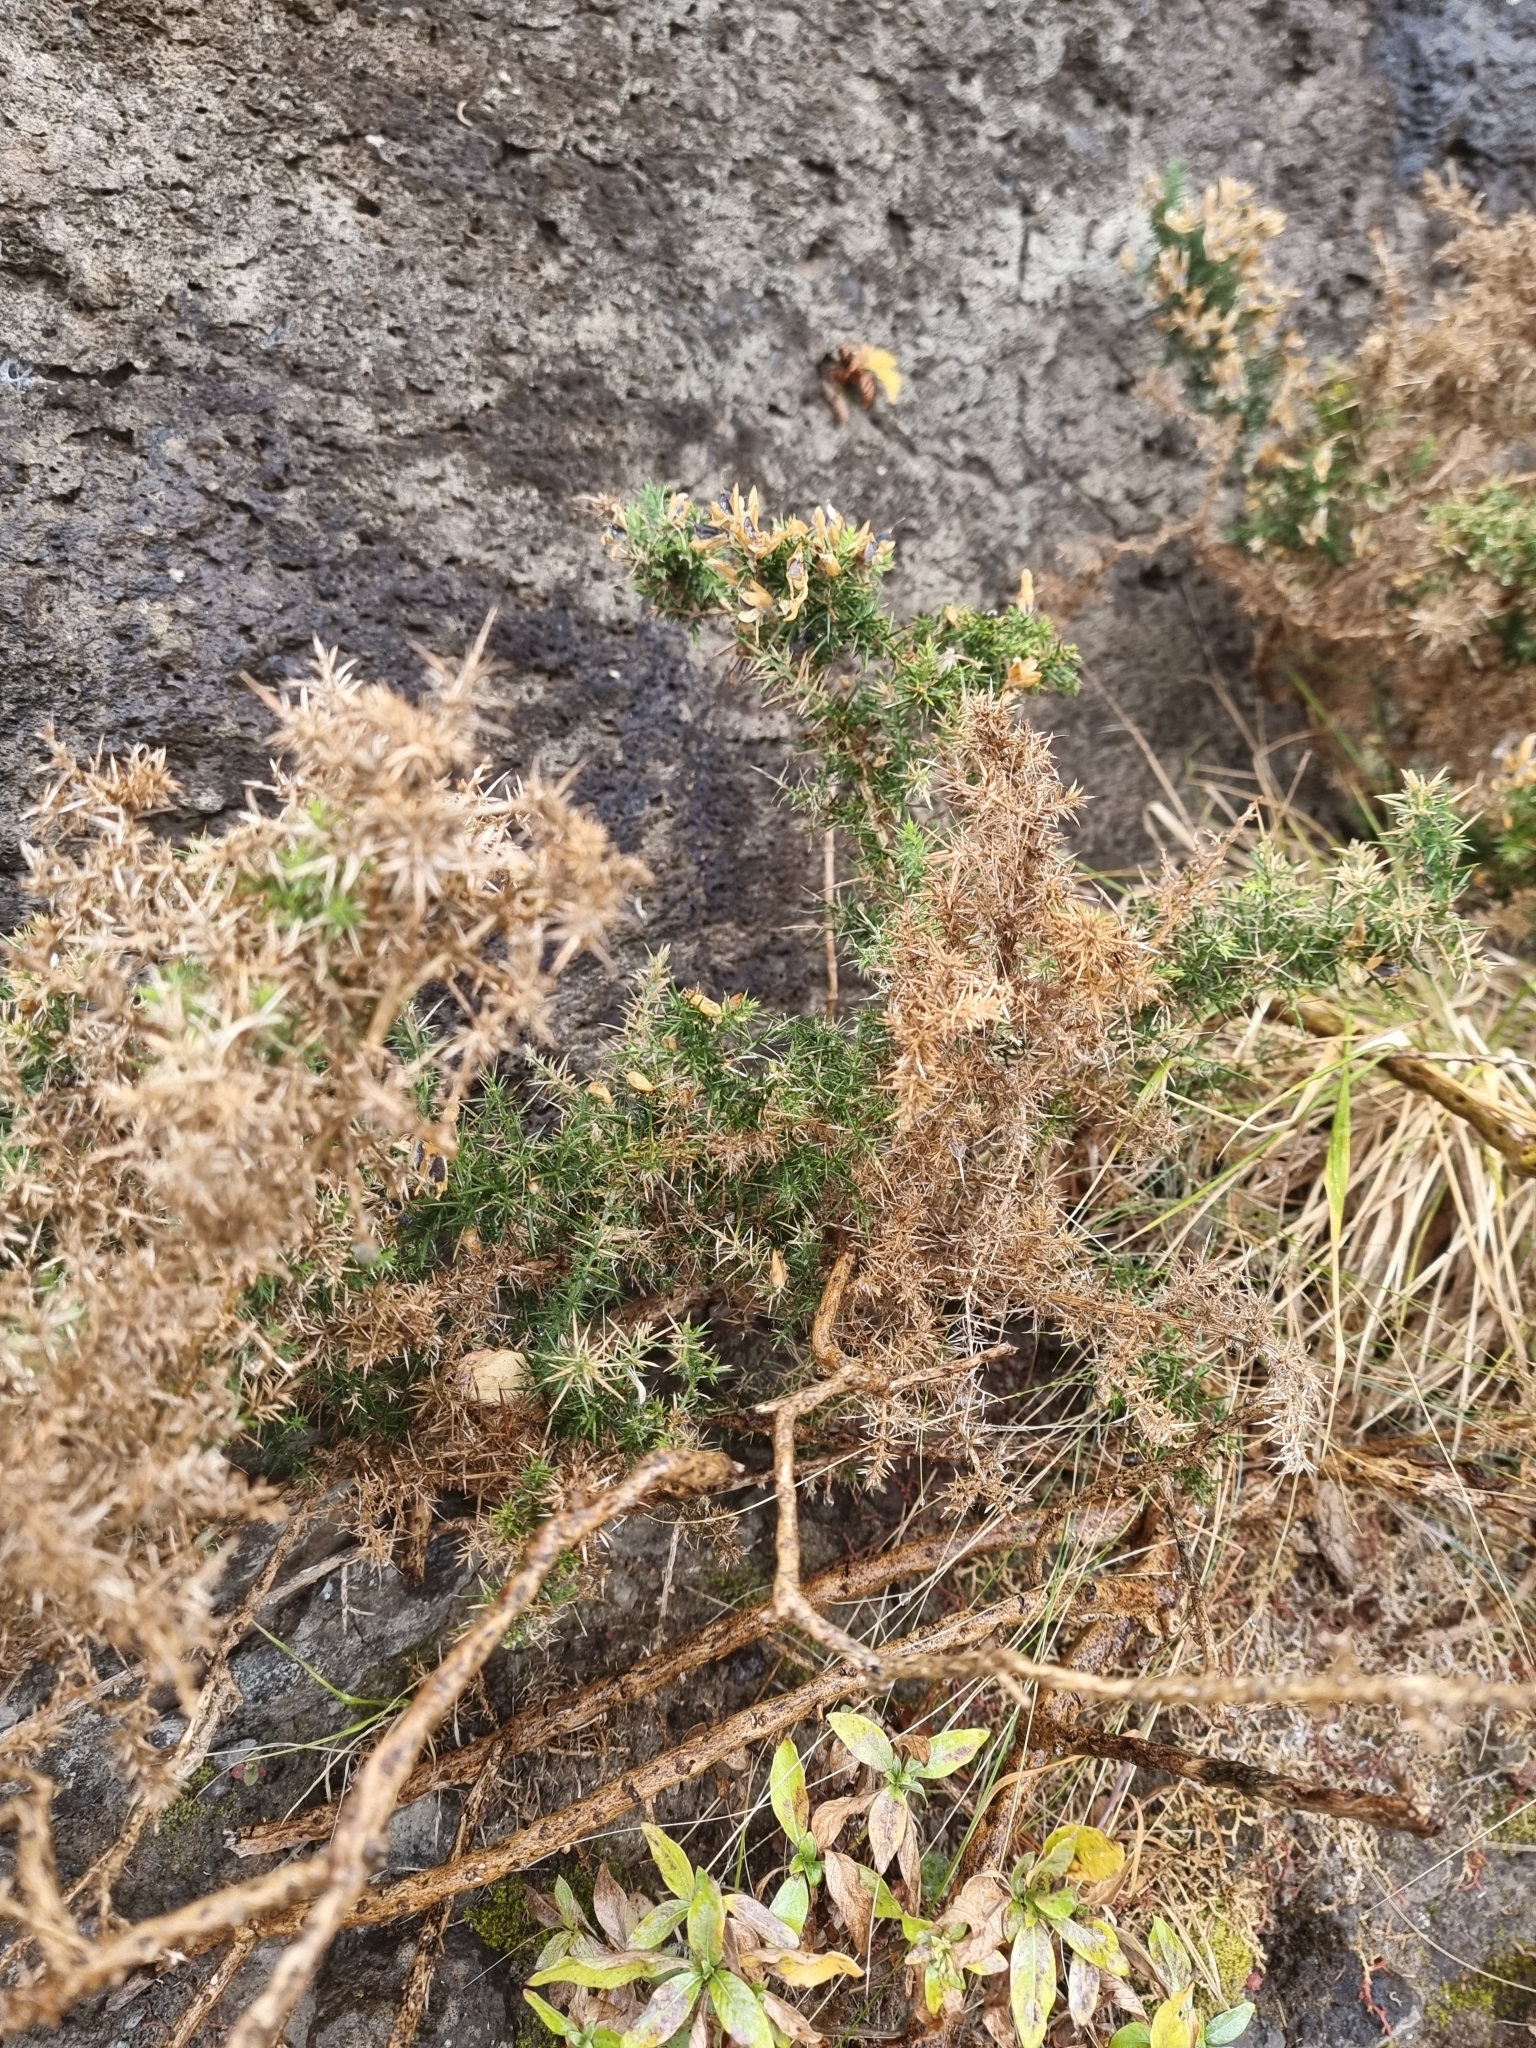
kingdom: Plantae
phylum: Tracheophyta
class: Magnoliopsida
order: Fabales
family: Fabaceae
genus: Ulex
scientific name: Ulex europaeus
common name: Common gorse
